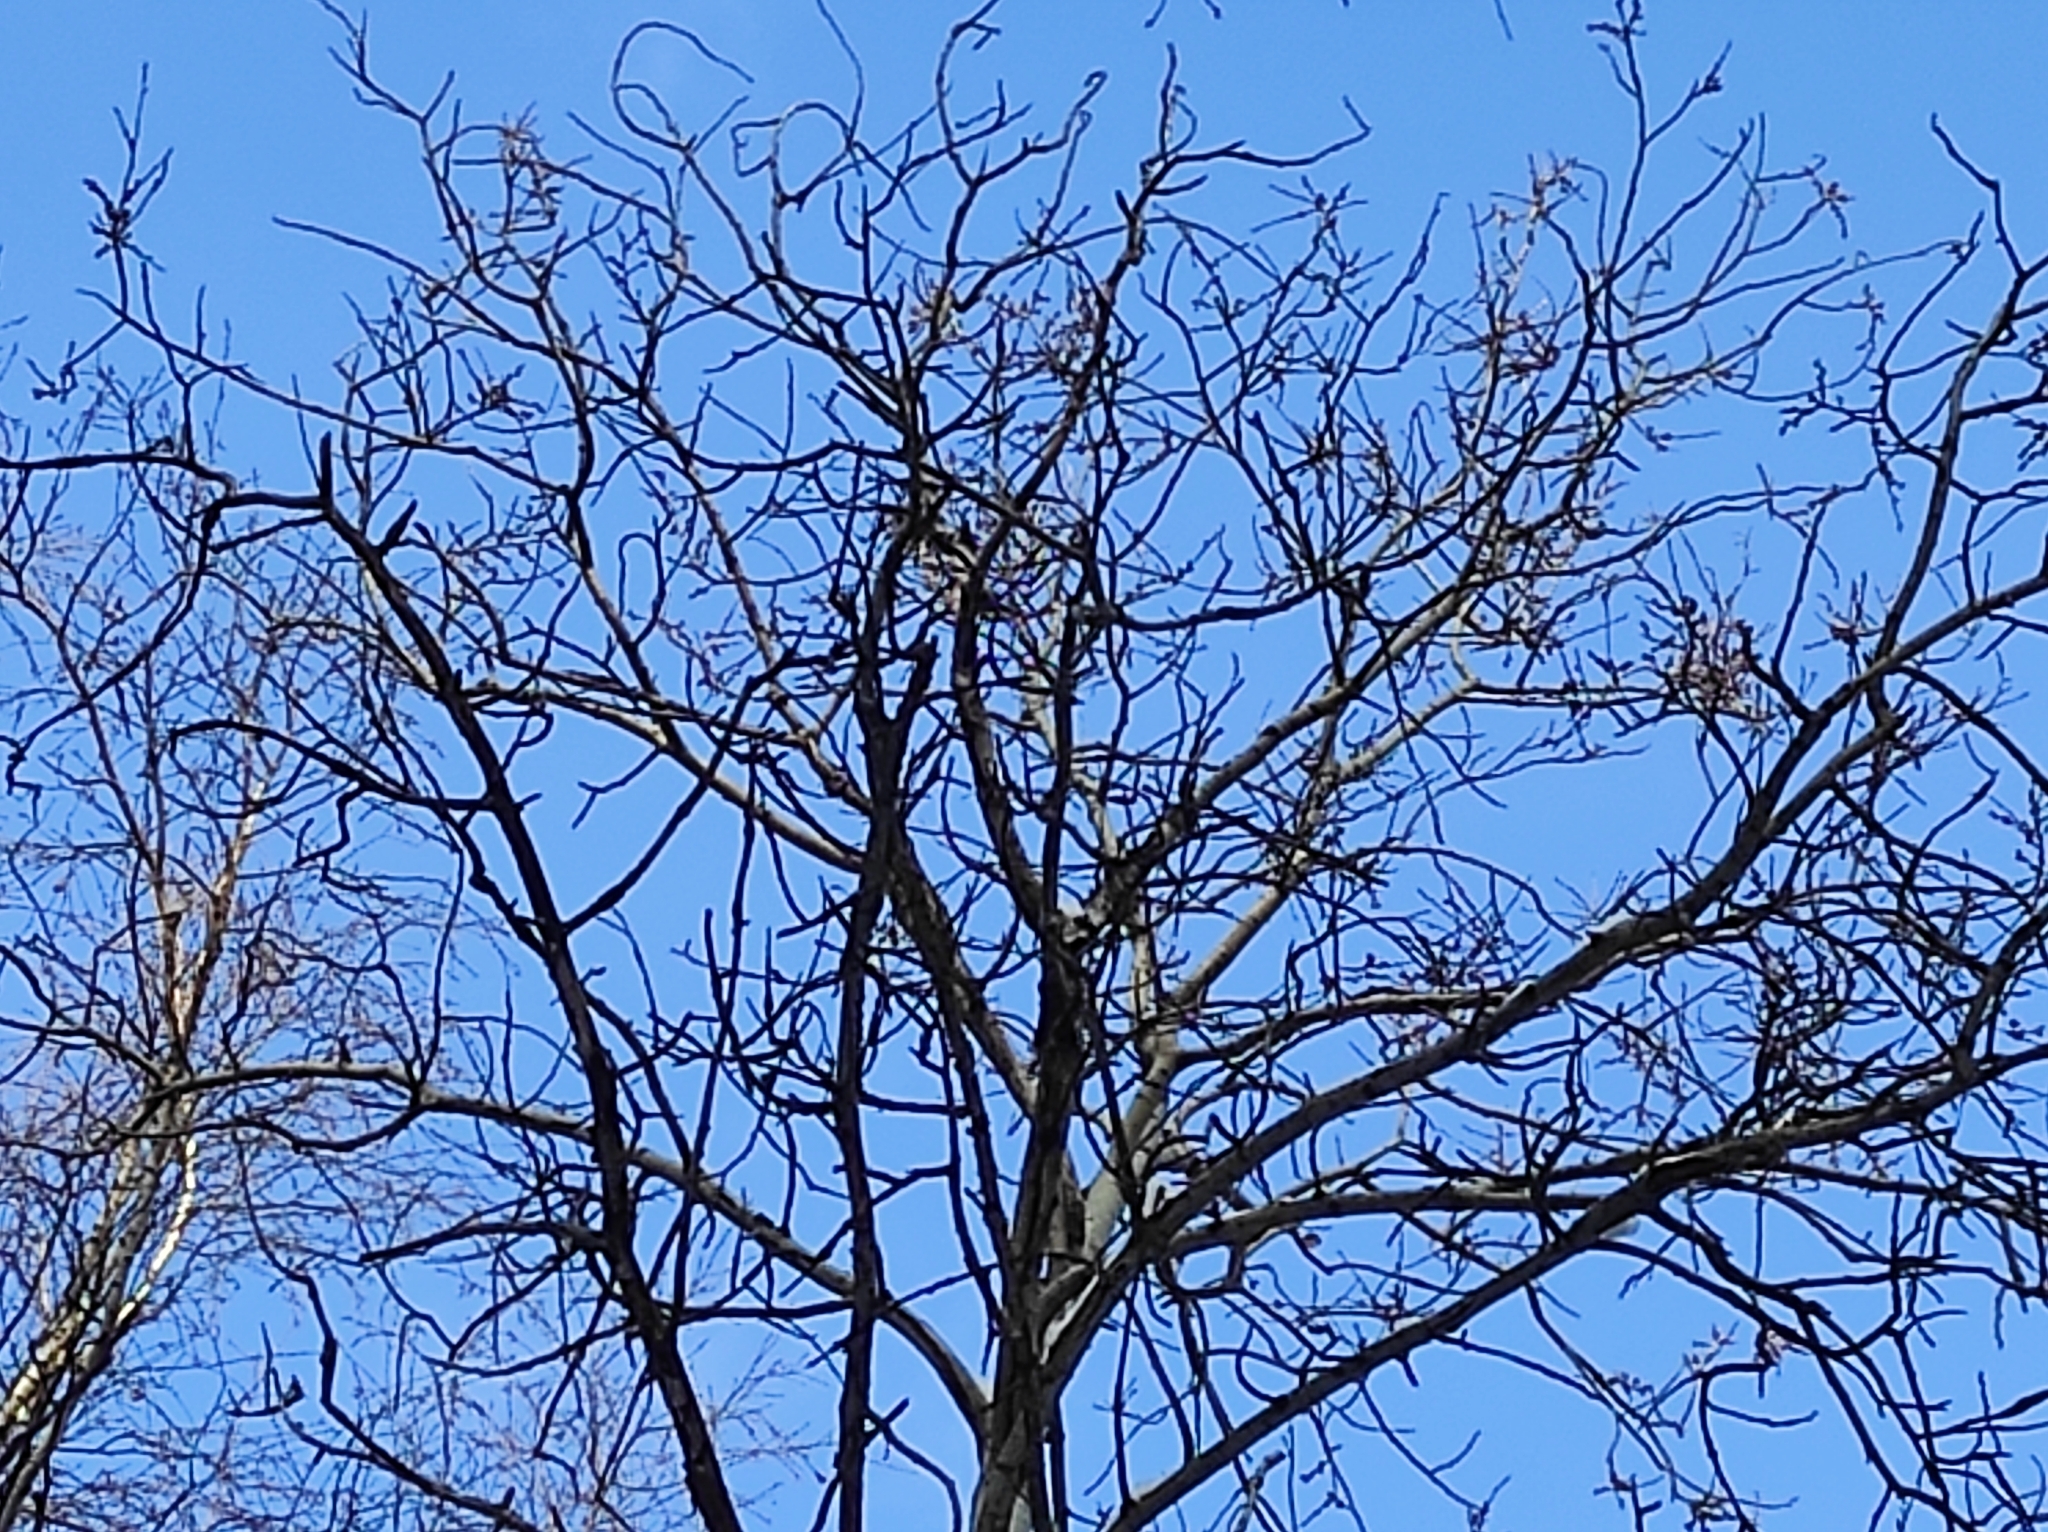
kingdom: Animalia
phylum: Chordata
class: Aves
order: Passeriformes
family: Paridae
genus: Parus
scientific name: Parus major
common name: Great tit
